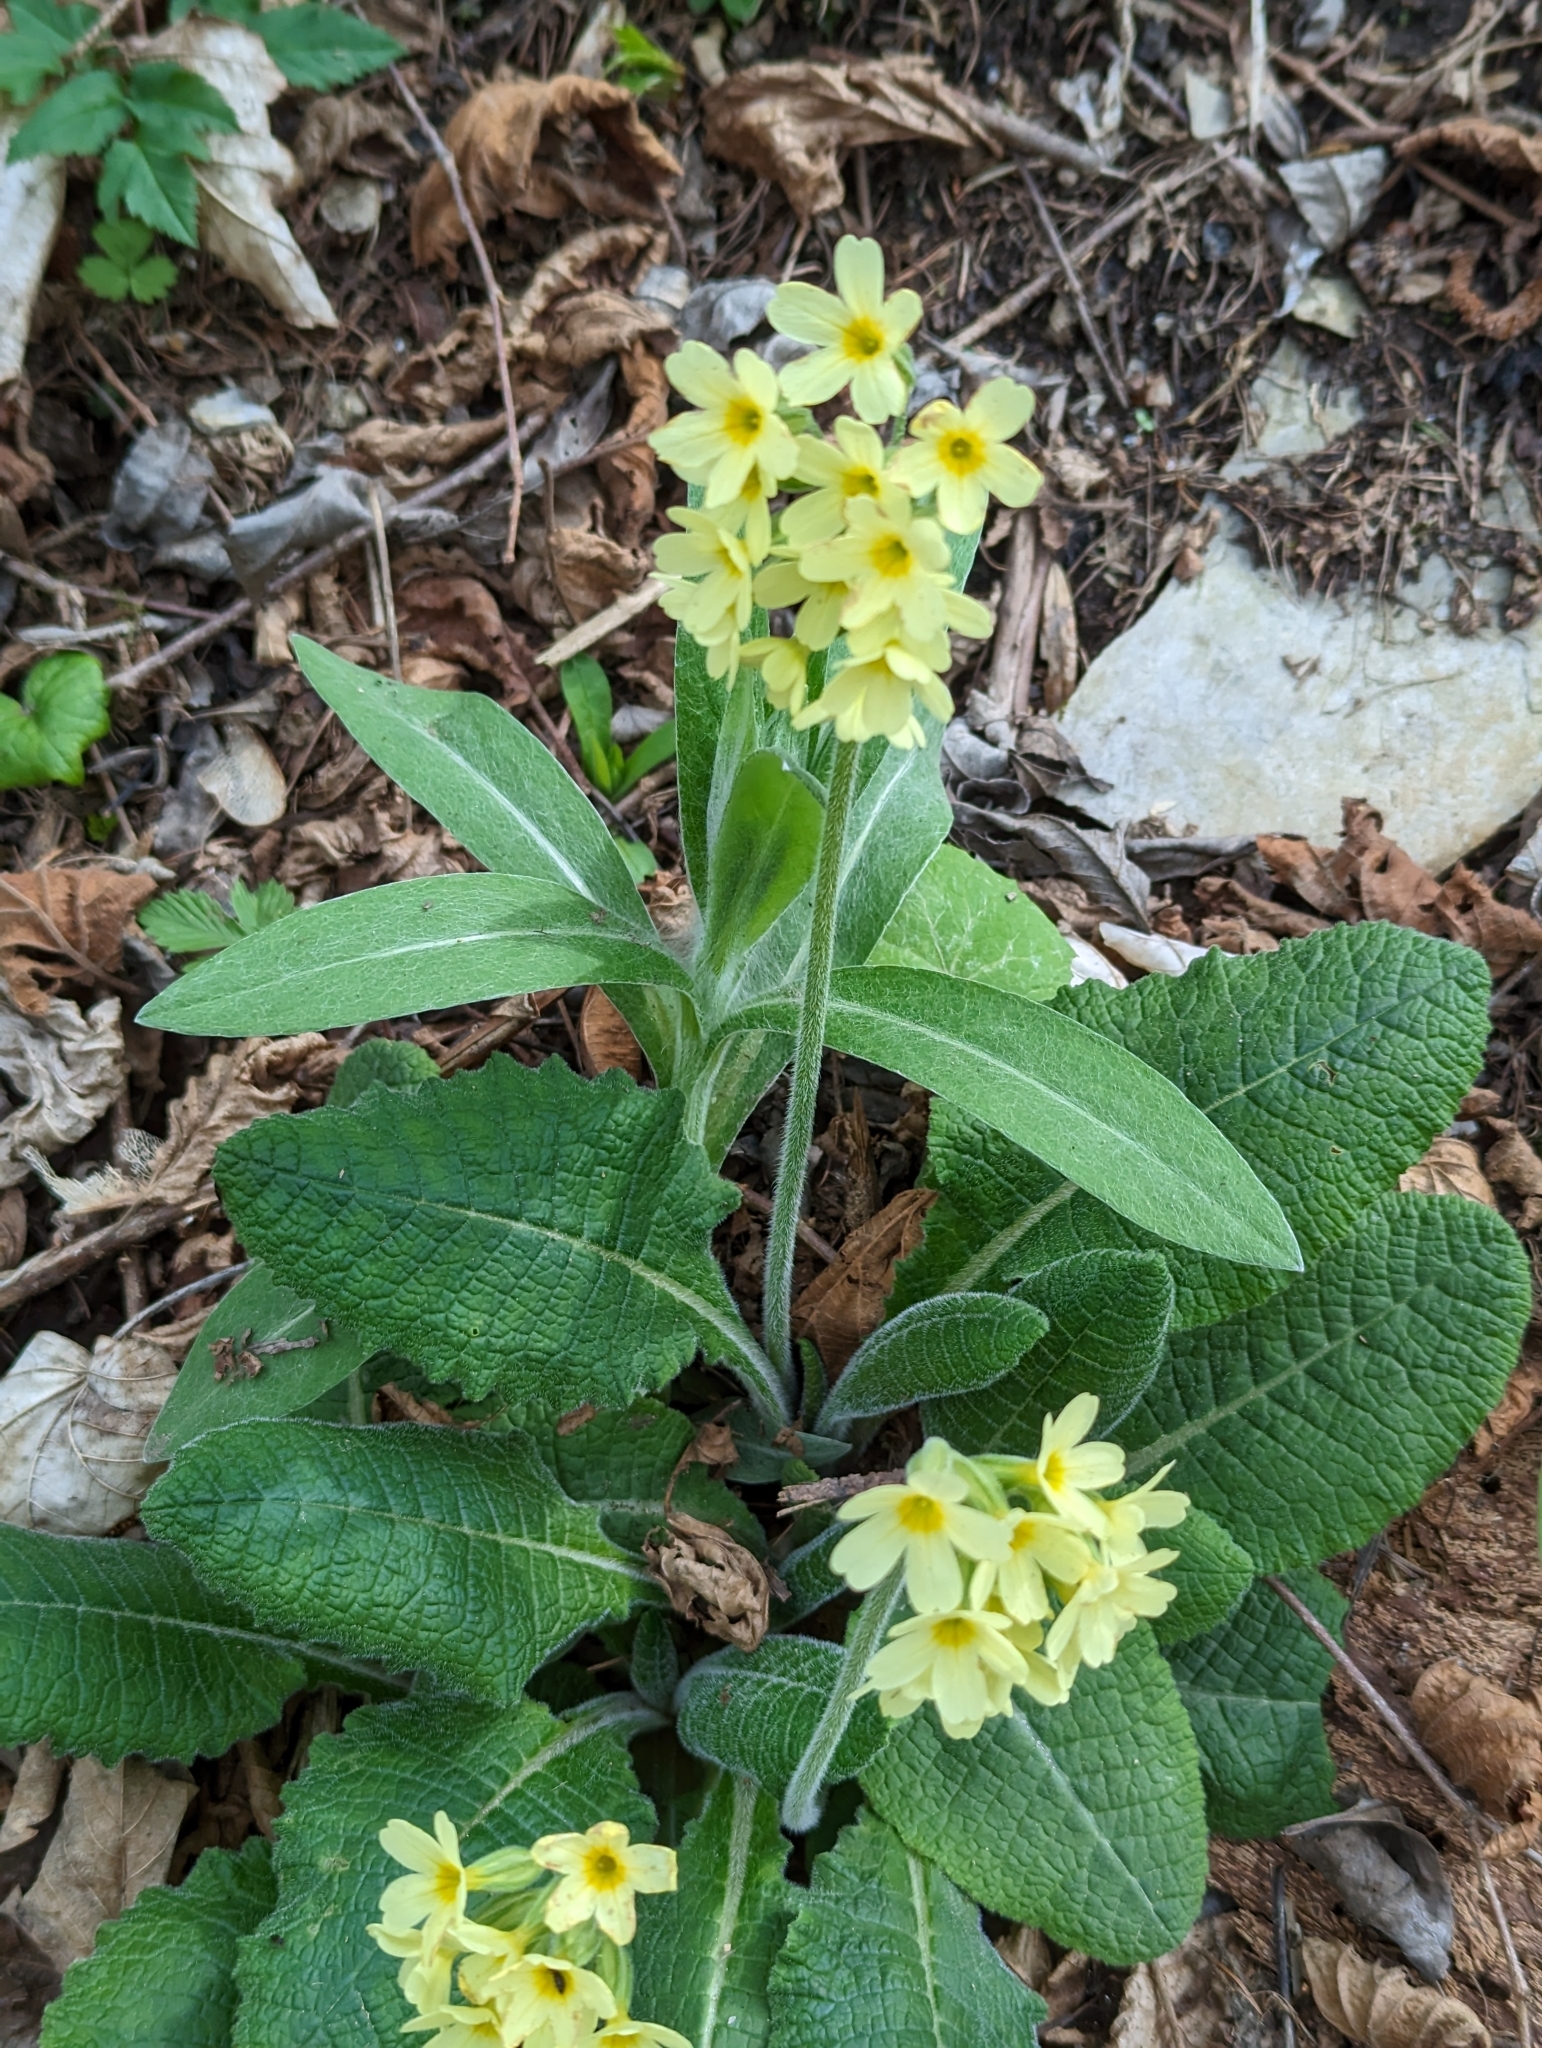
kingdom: Plantae
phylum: Tracheophyta
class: Magnoliopsida
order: Ericales
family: Primulaceae
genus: Primula
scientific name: Primula elatior
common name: Oxlip
